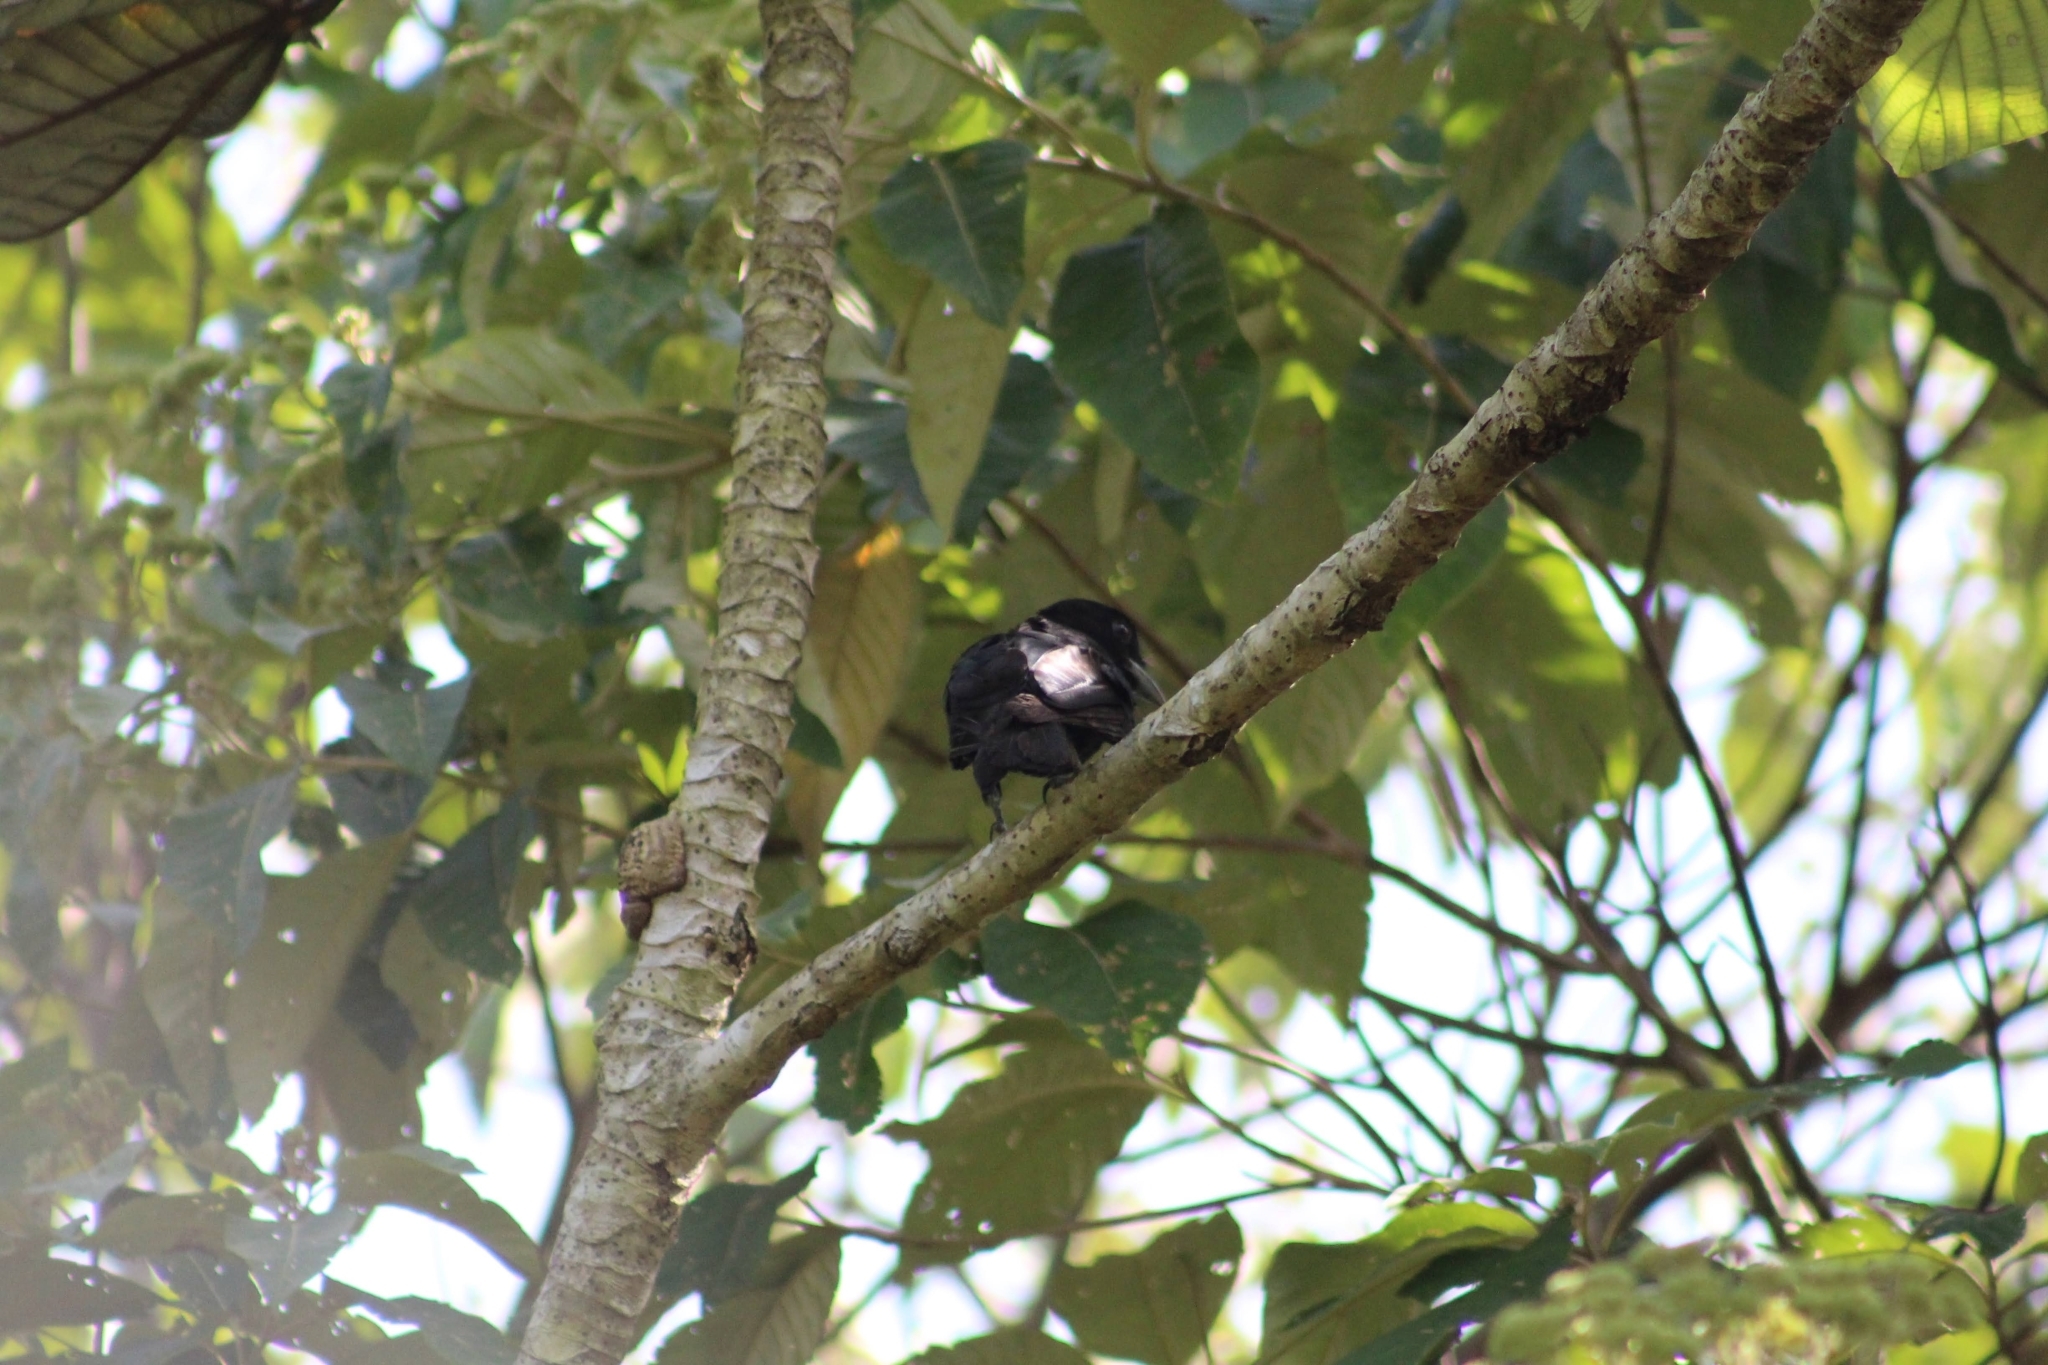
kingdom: Animalia
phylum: Chordata
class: Aves
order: Passeriformes
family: Cotingidae
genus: Querula
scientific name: Querula purpurata
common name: Purple-throated fruitcrow
